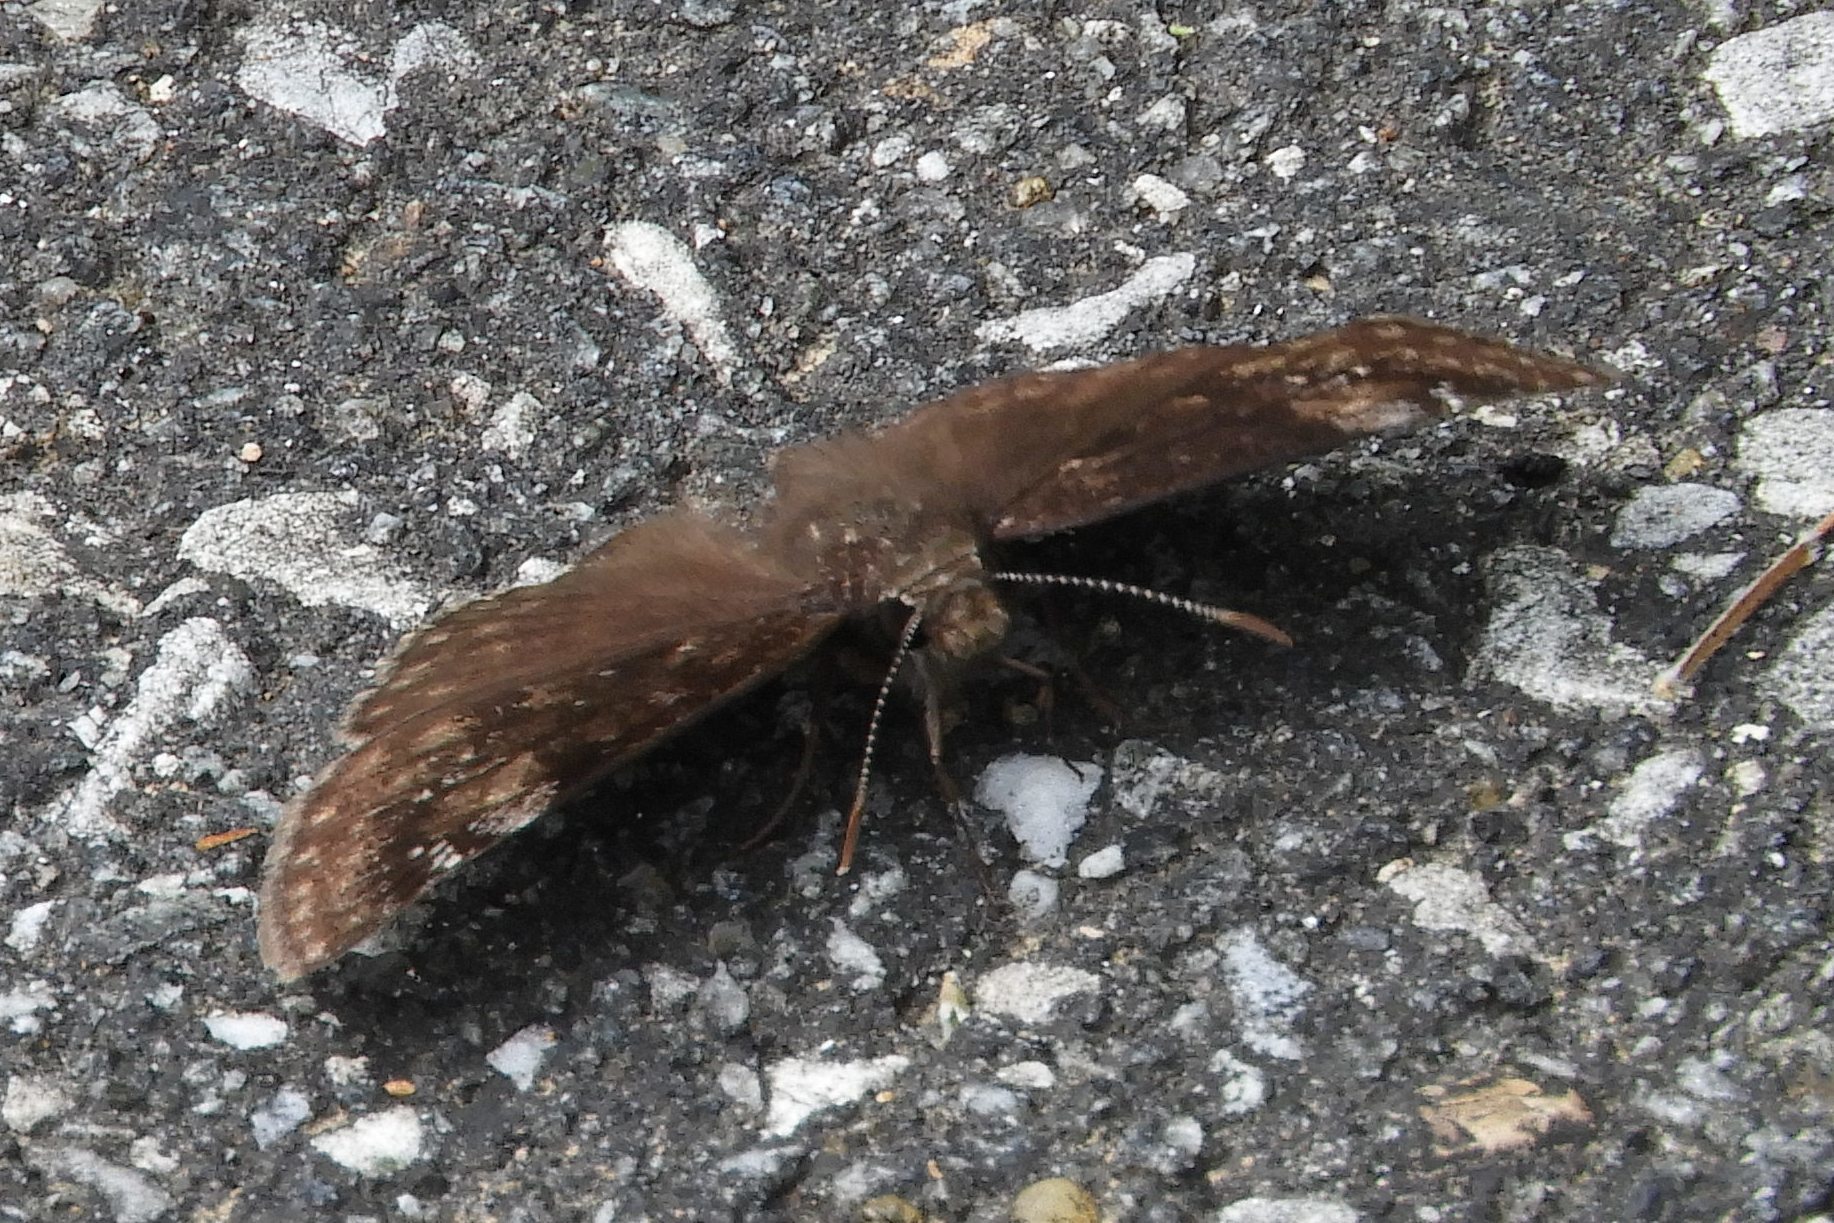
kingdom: Animalia
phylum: Arthropoda
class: Insecta
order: Lepidoptera
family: Hesperiidae
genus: Erynnis
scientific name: Erynnis baptisiae
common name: Wild indigo duskywing
